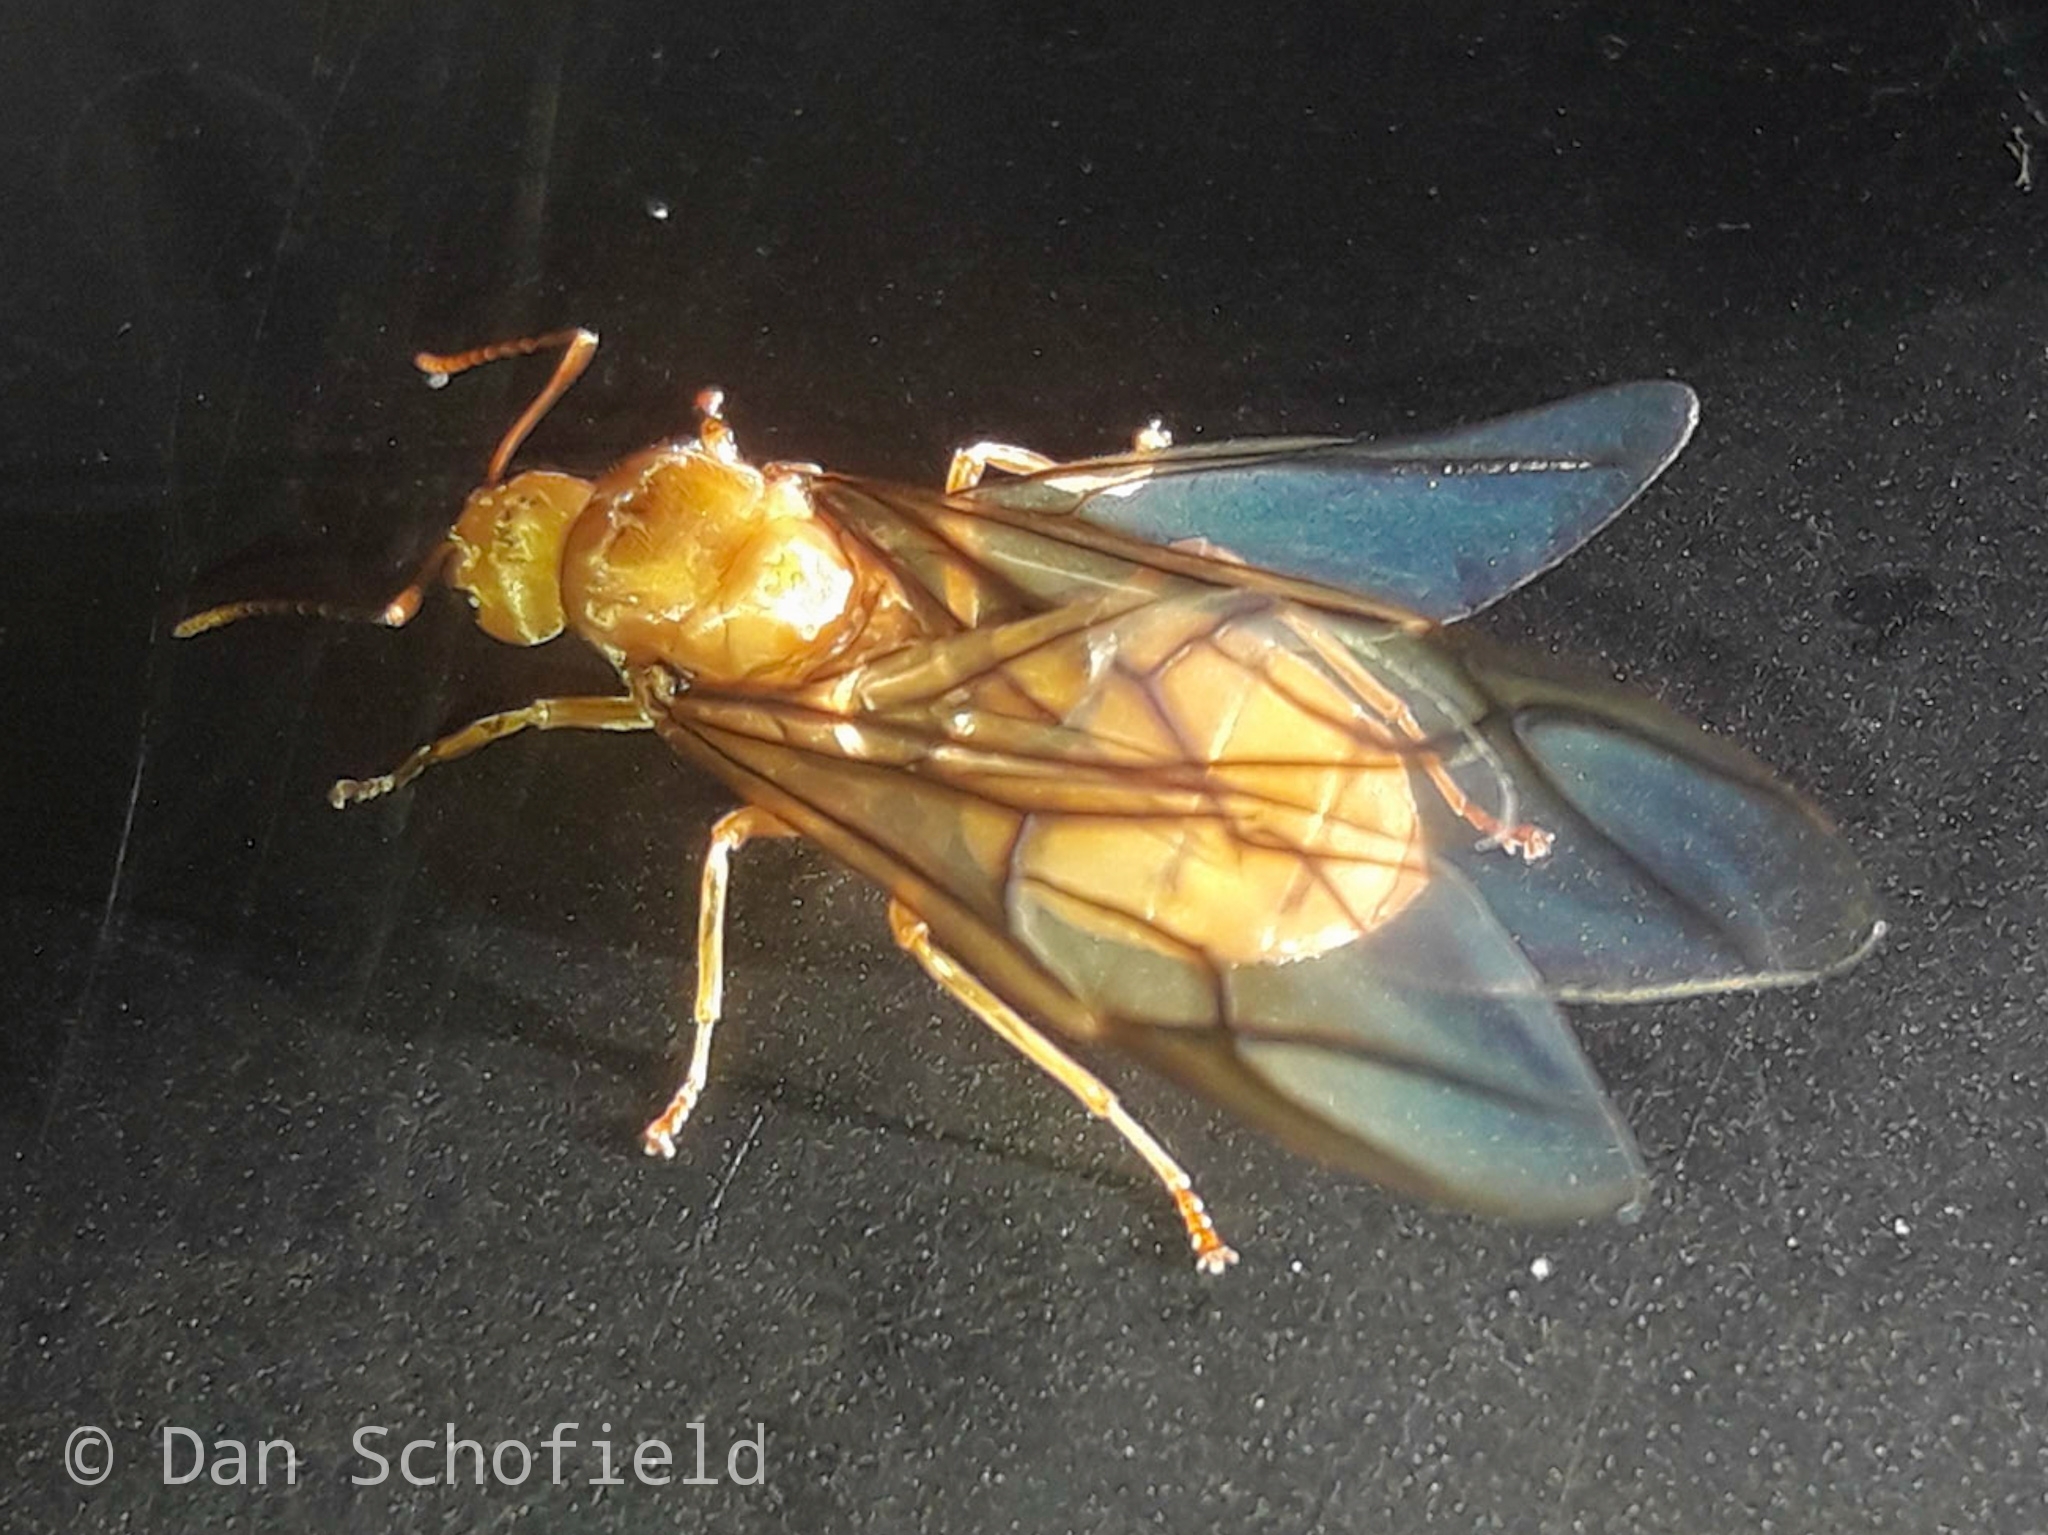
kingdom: Animalia
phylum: Arthropoda
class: Insecta
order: Hymenoptera
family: Formicidae
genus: Oecophylla
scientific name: Oecophylla smaragdina
